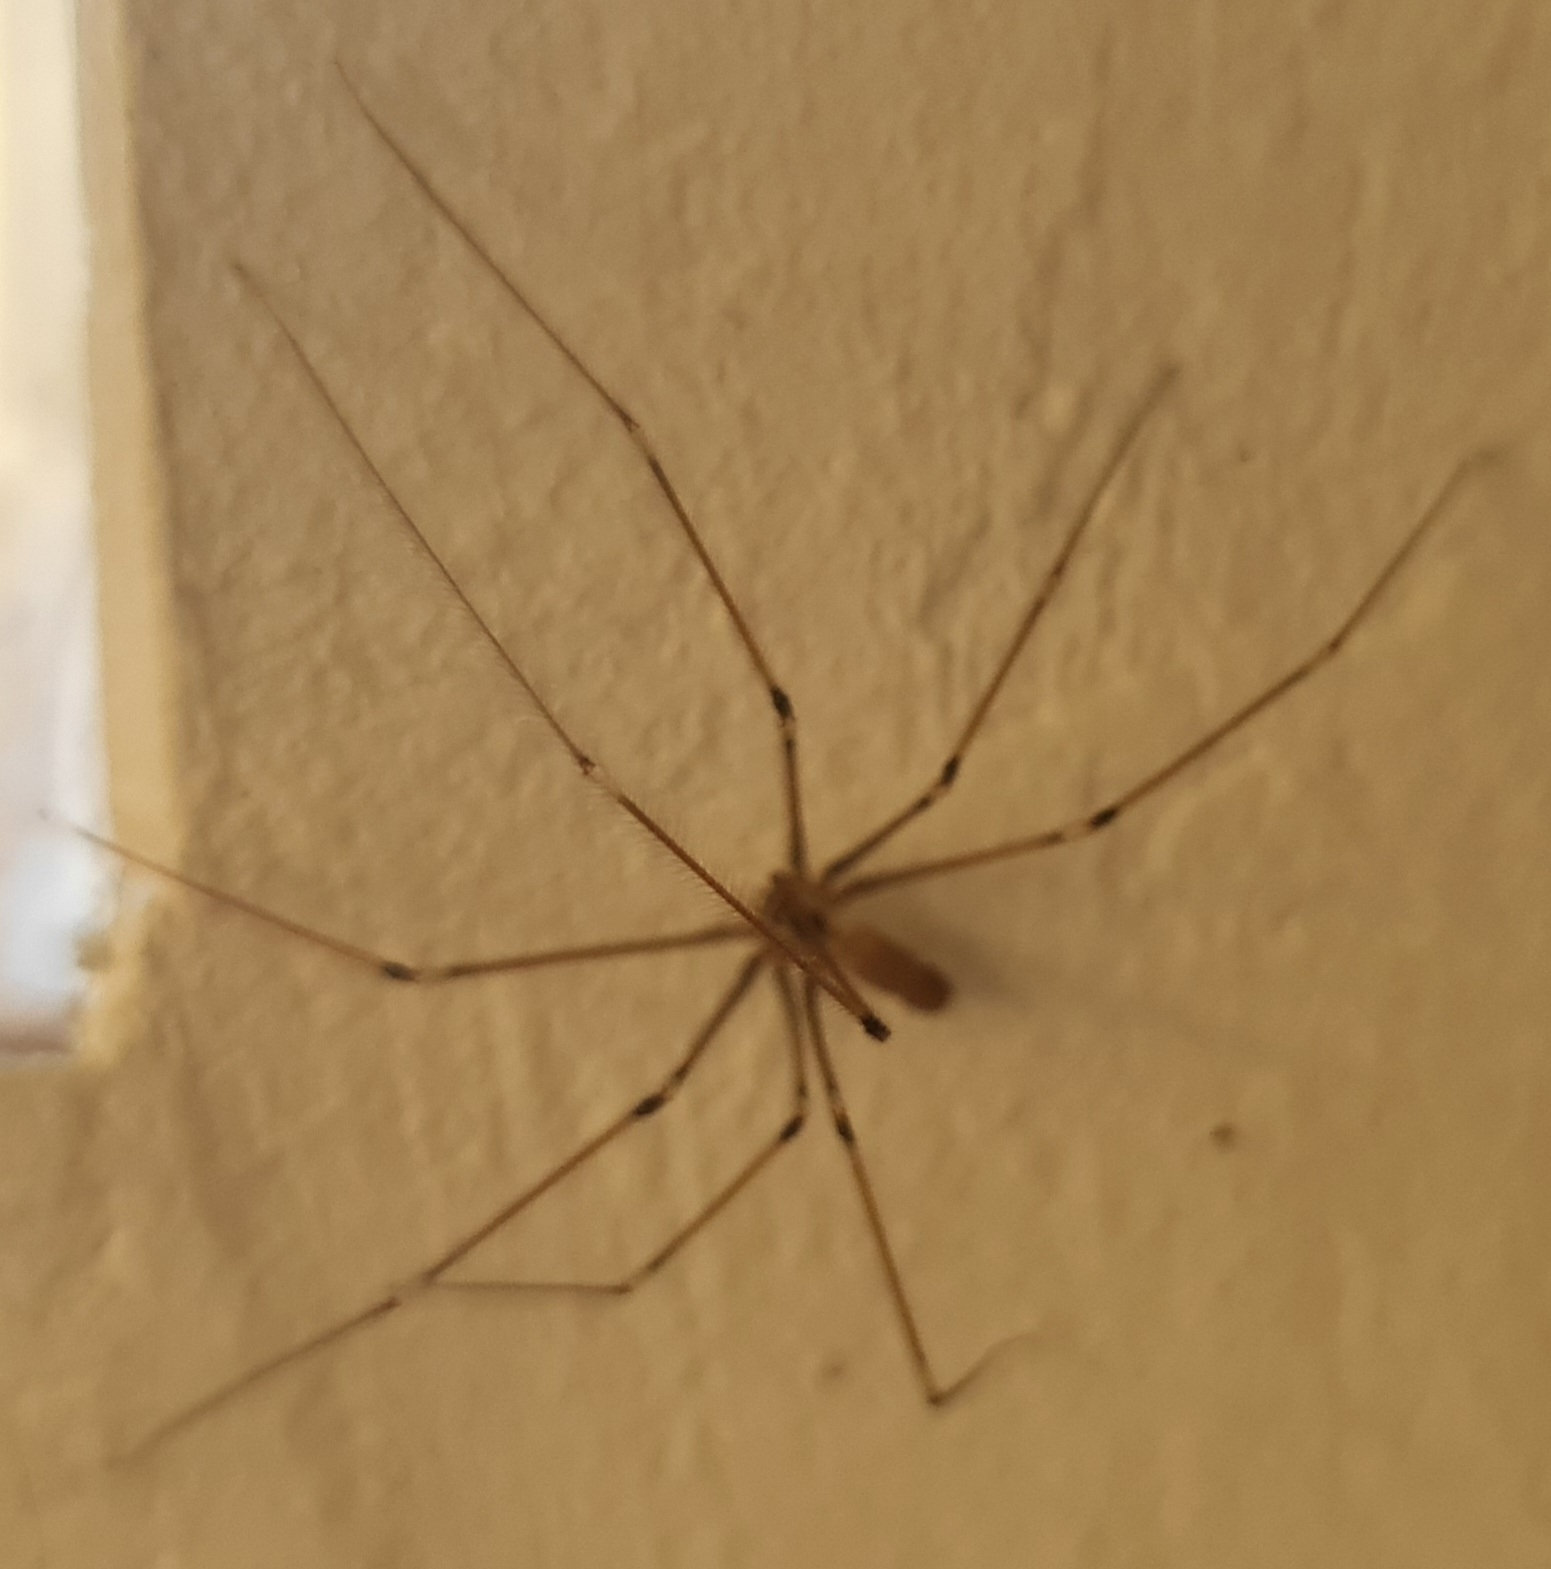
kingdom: Animalia
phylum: Arthropoda
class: Arachnida
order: Araneae
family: Pholcidae
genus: Pholcus
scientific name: Pholcus phalangioides
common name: Longbodied cellar spider
